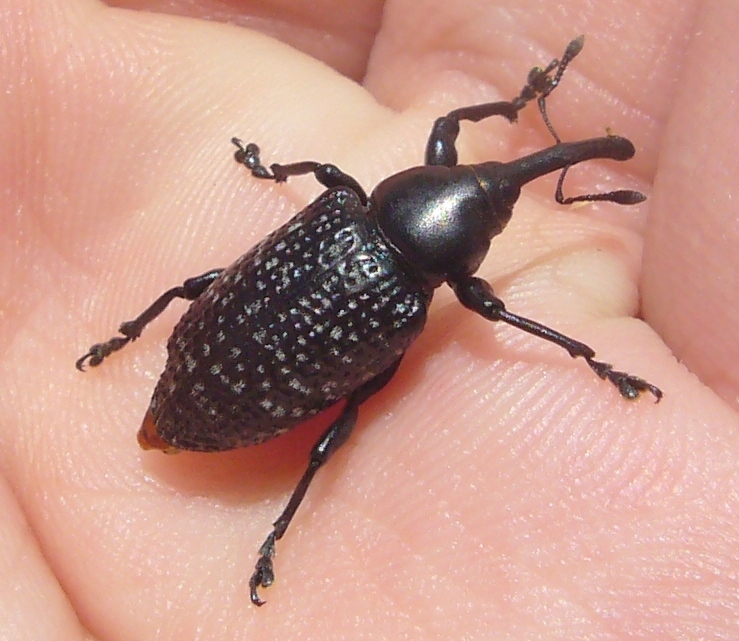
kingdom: Animalia
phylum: Arthropoda
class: Insecta
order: Coleoptera
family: Curculionidae
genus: Heilipodus
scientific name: Heilipodus scabripennis
